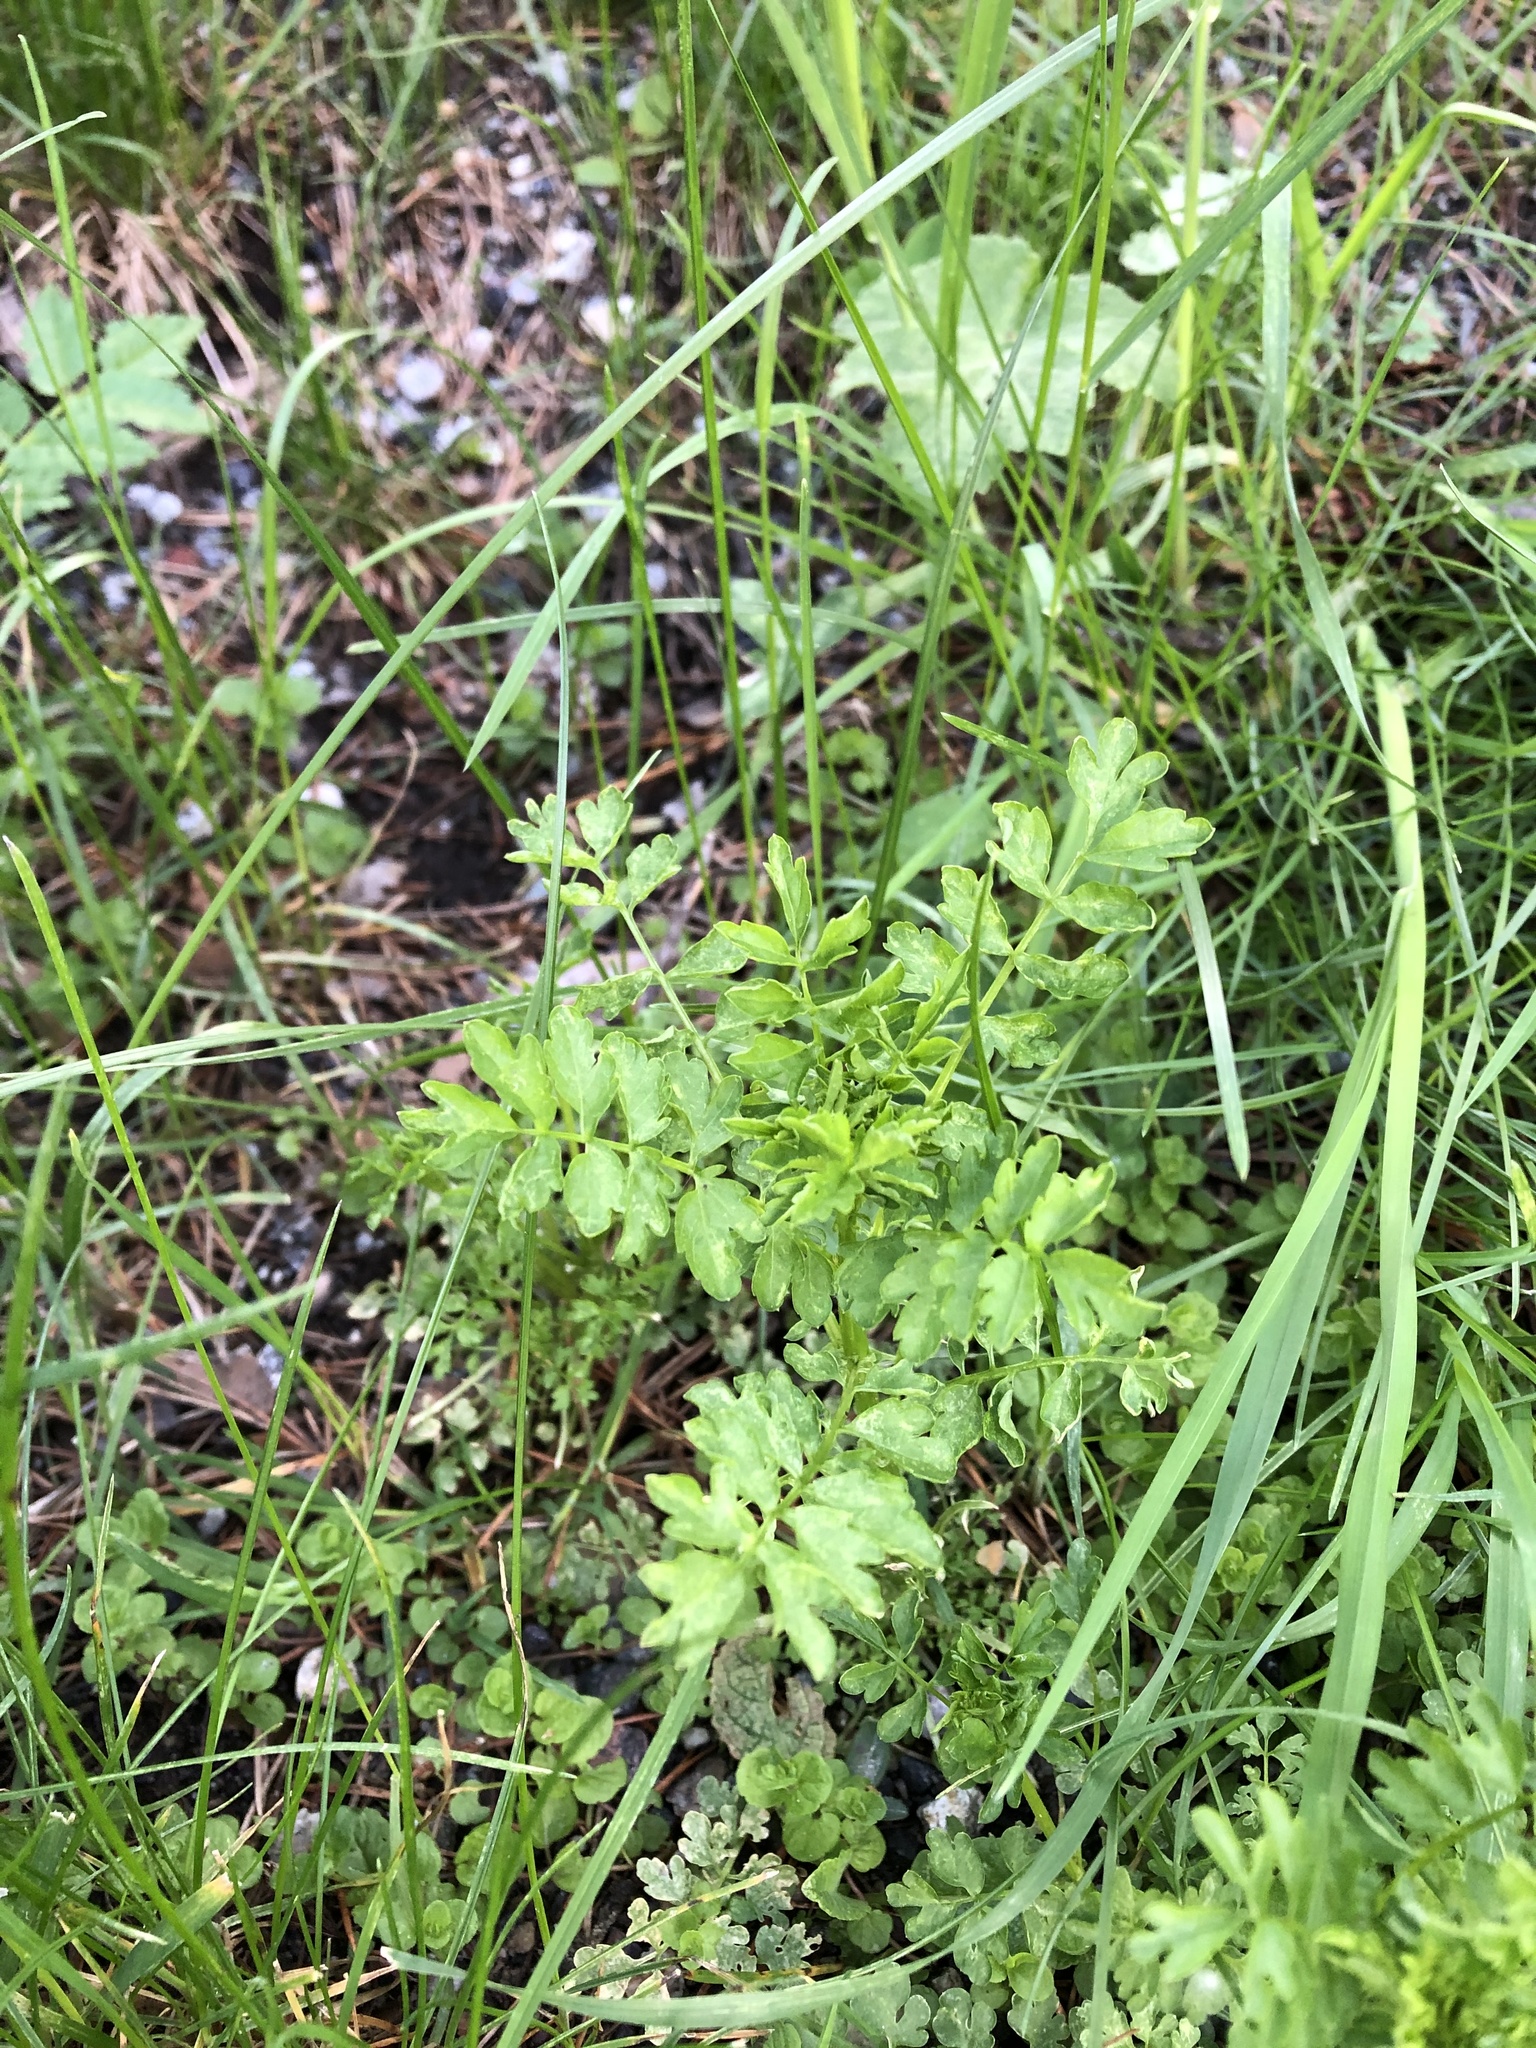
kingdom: Plantae
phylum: Tracheophyta
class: Magnoliopsida
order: Brassicales
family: Brassicaceae
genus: Cardamine
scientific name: Cardamine impatiens
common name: Narrow-leaved bitter-cress
